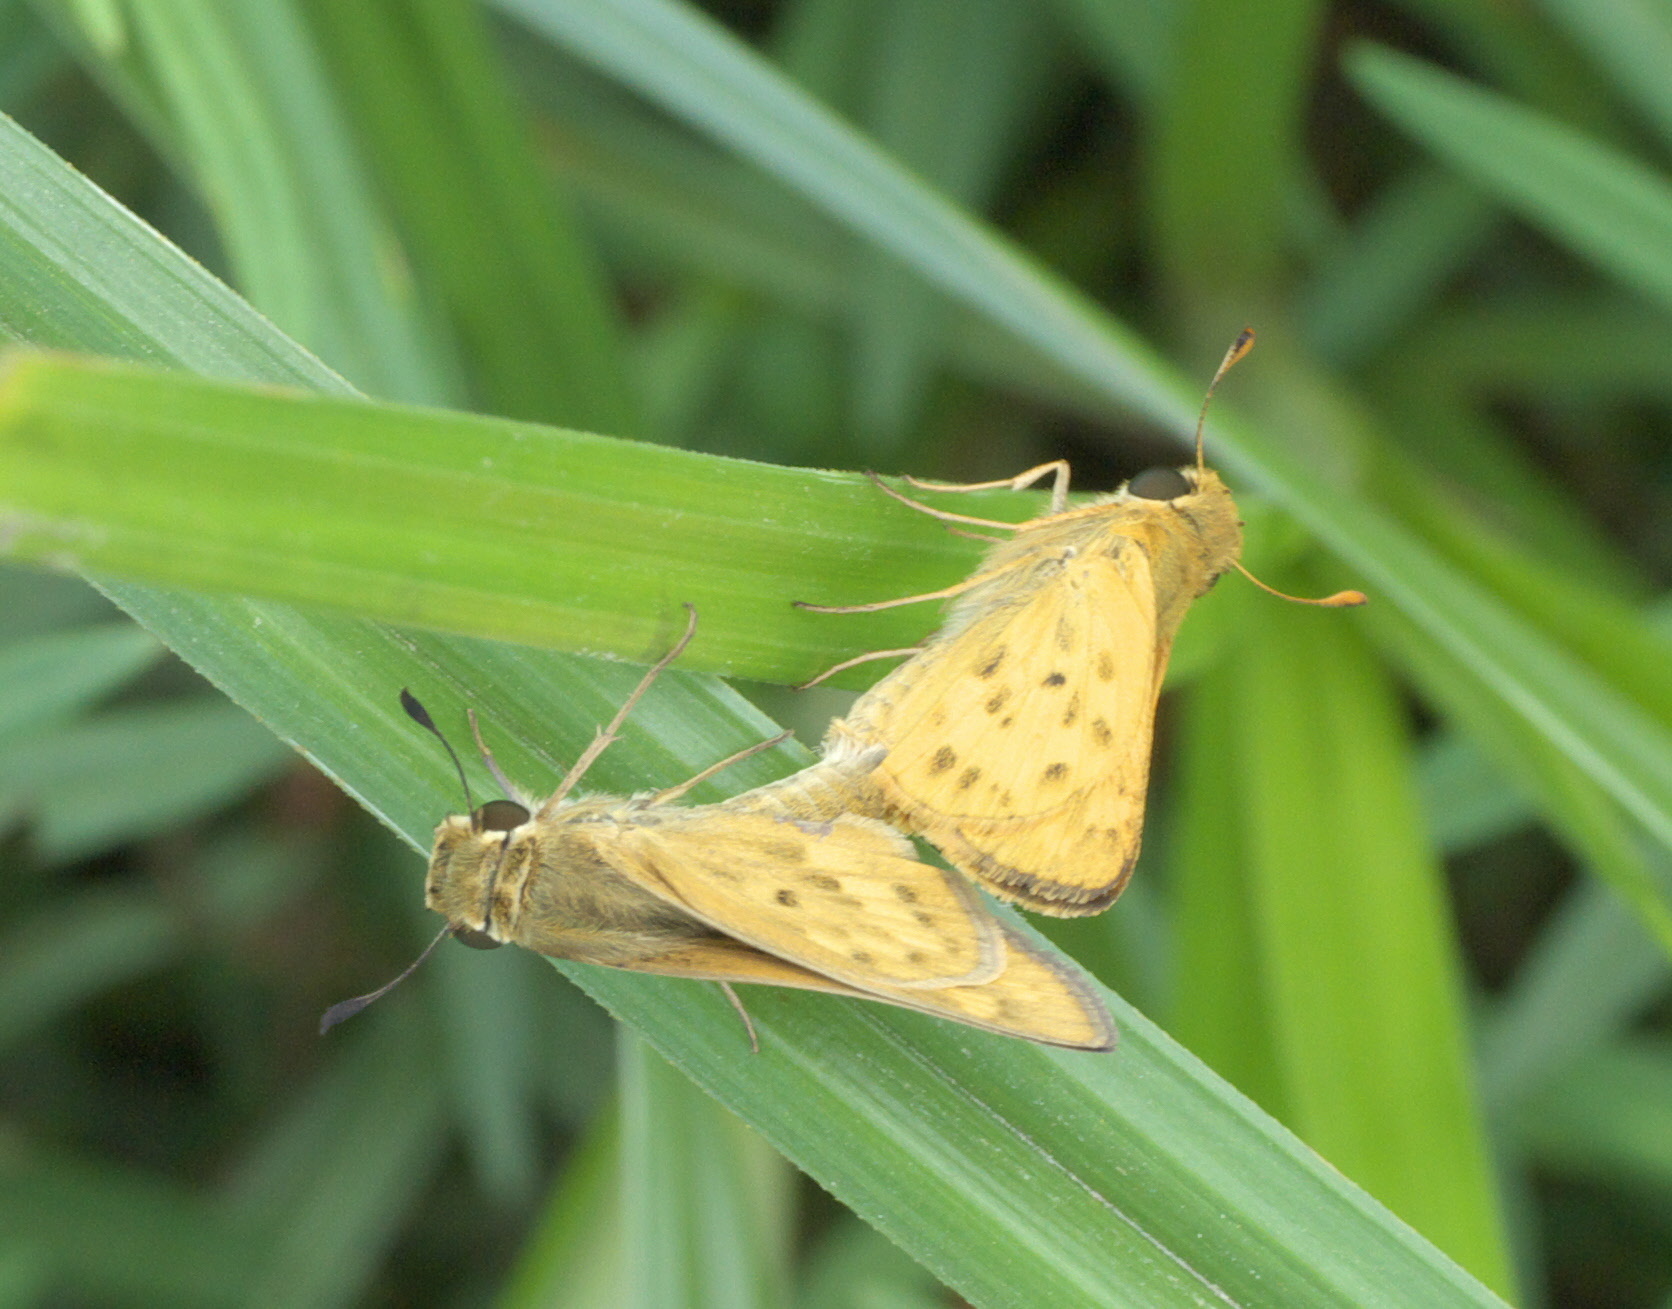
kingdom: Animalia
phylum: Arthropoda
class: Insecta
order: Lepidoptera
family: Hesperiidae
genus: Hylephila
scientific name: Hylephila phyleus
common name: Fiery skipper
